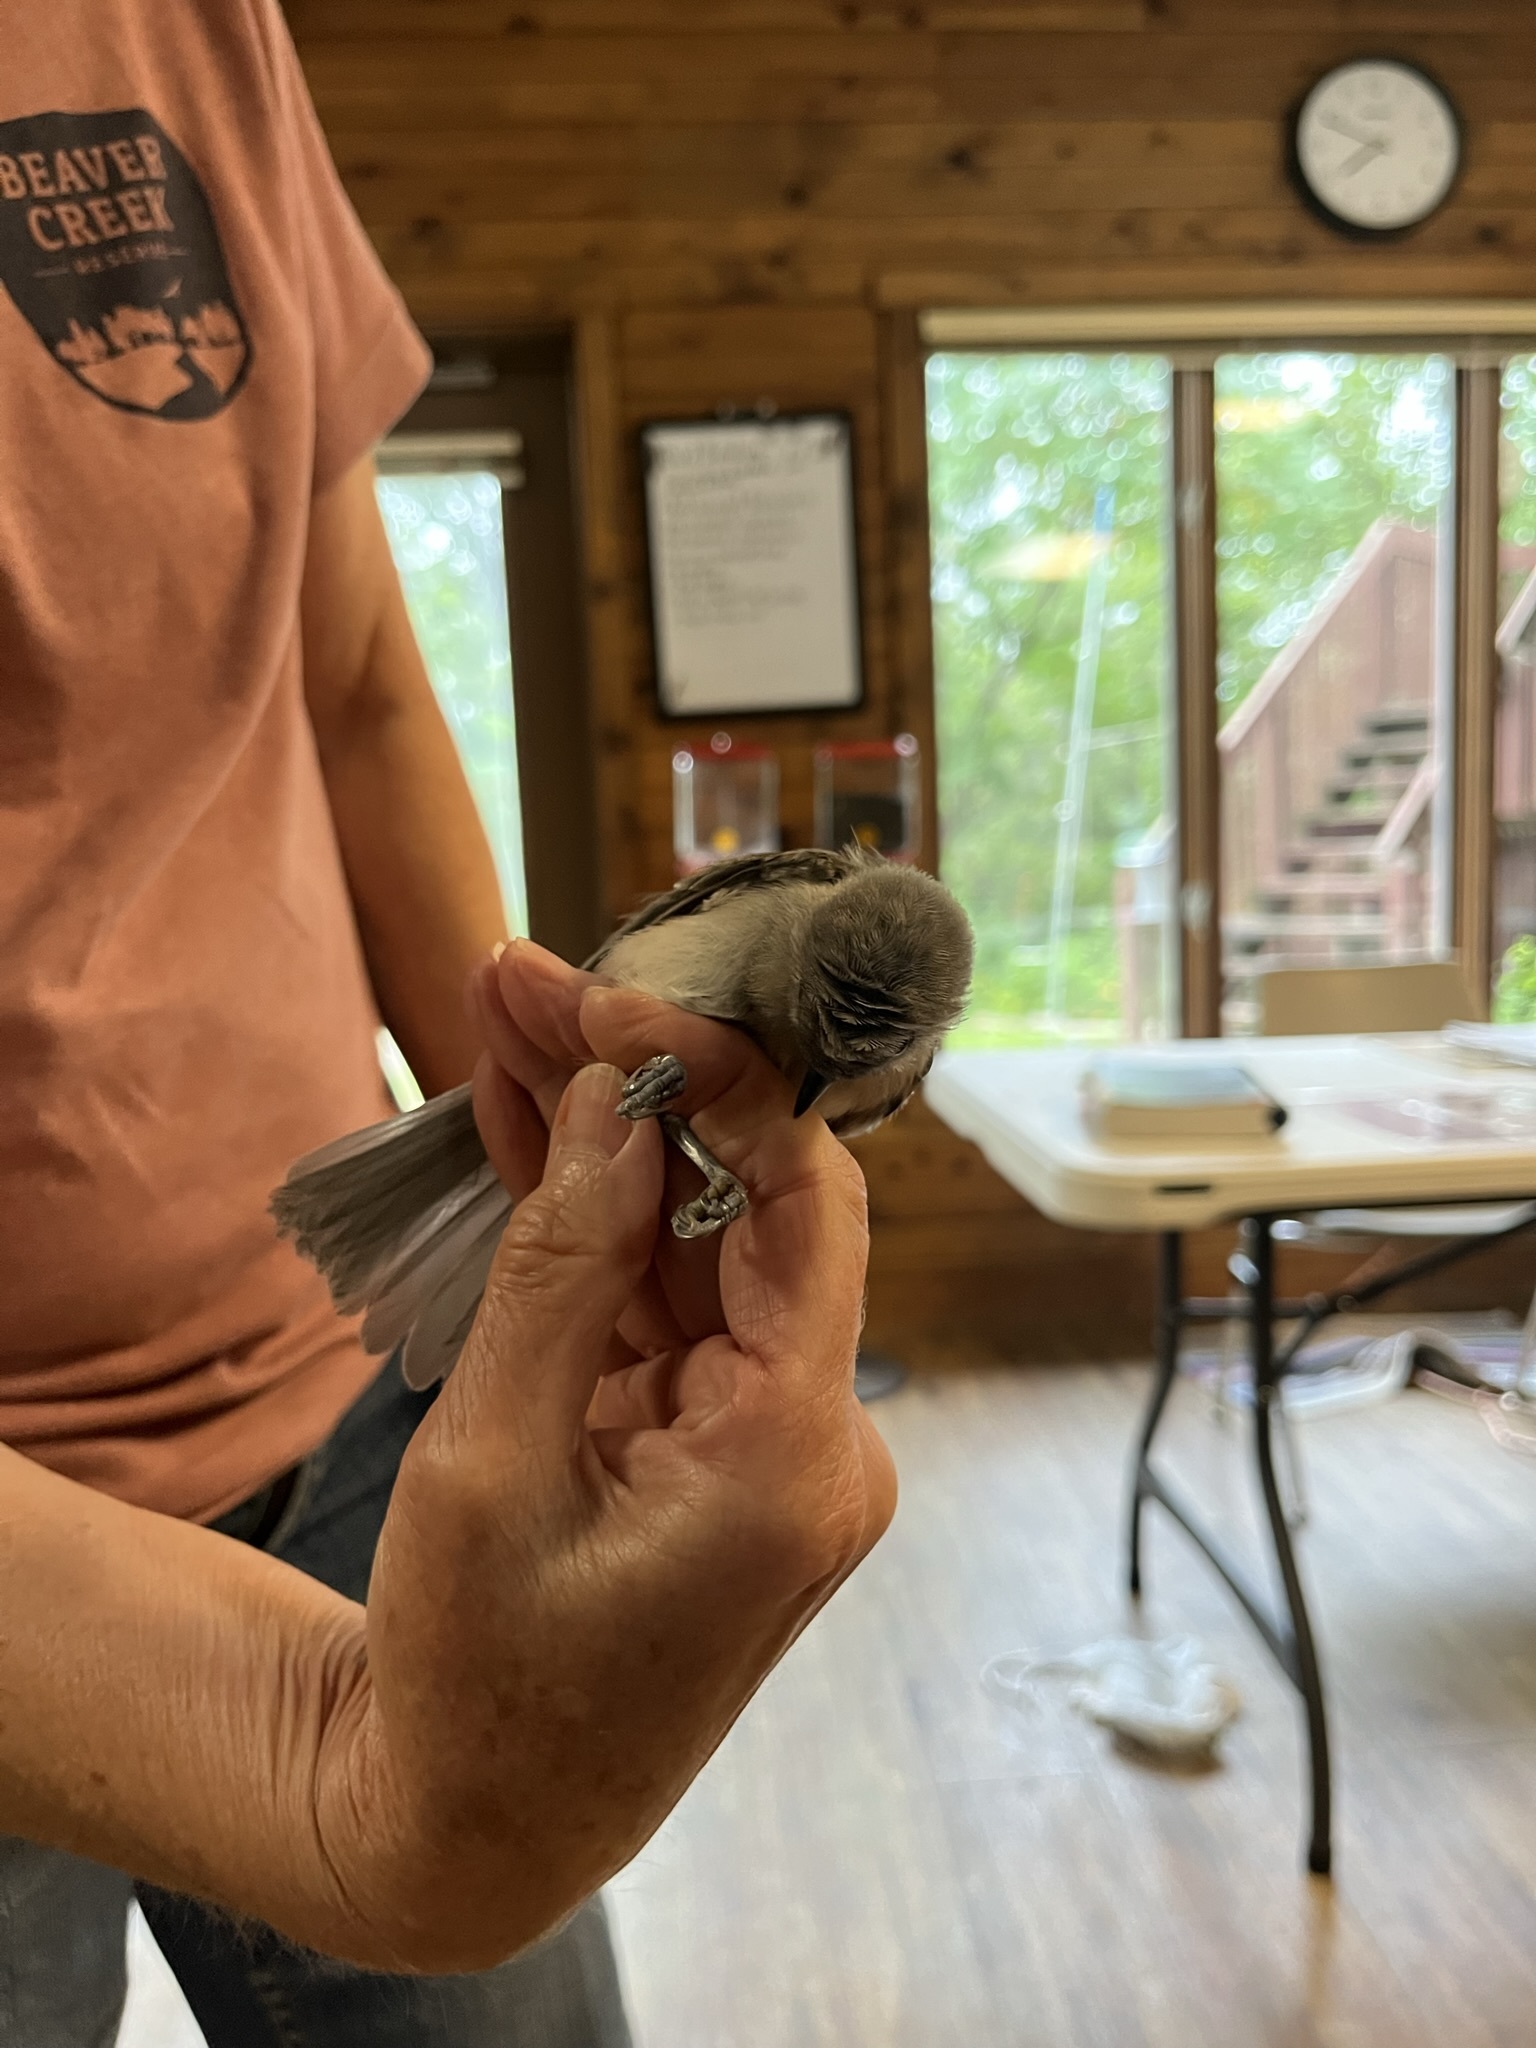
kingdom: Animalia
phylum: Chordata
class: Aves
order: Passeriformes
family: Paridae
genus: Baeolophus
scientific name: Baeolophus bicolor
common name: Tufted titmouse
